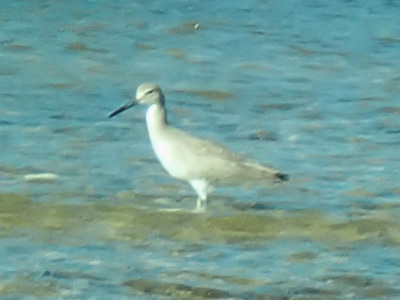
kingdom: Animalia
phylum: Chordata
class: Aves
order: Charadriiformes
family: Scolopacidae
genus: Tringa
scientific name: Tringa semipalmata
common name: Willet
